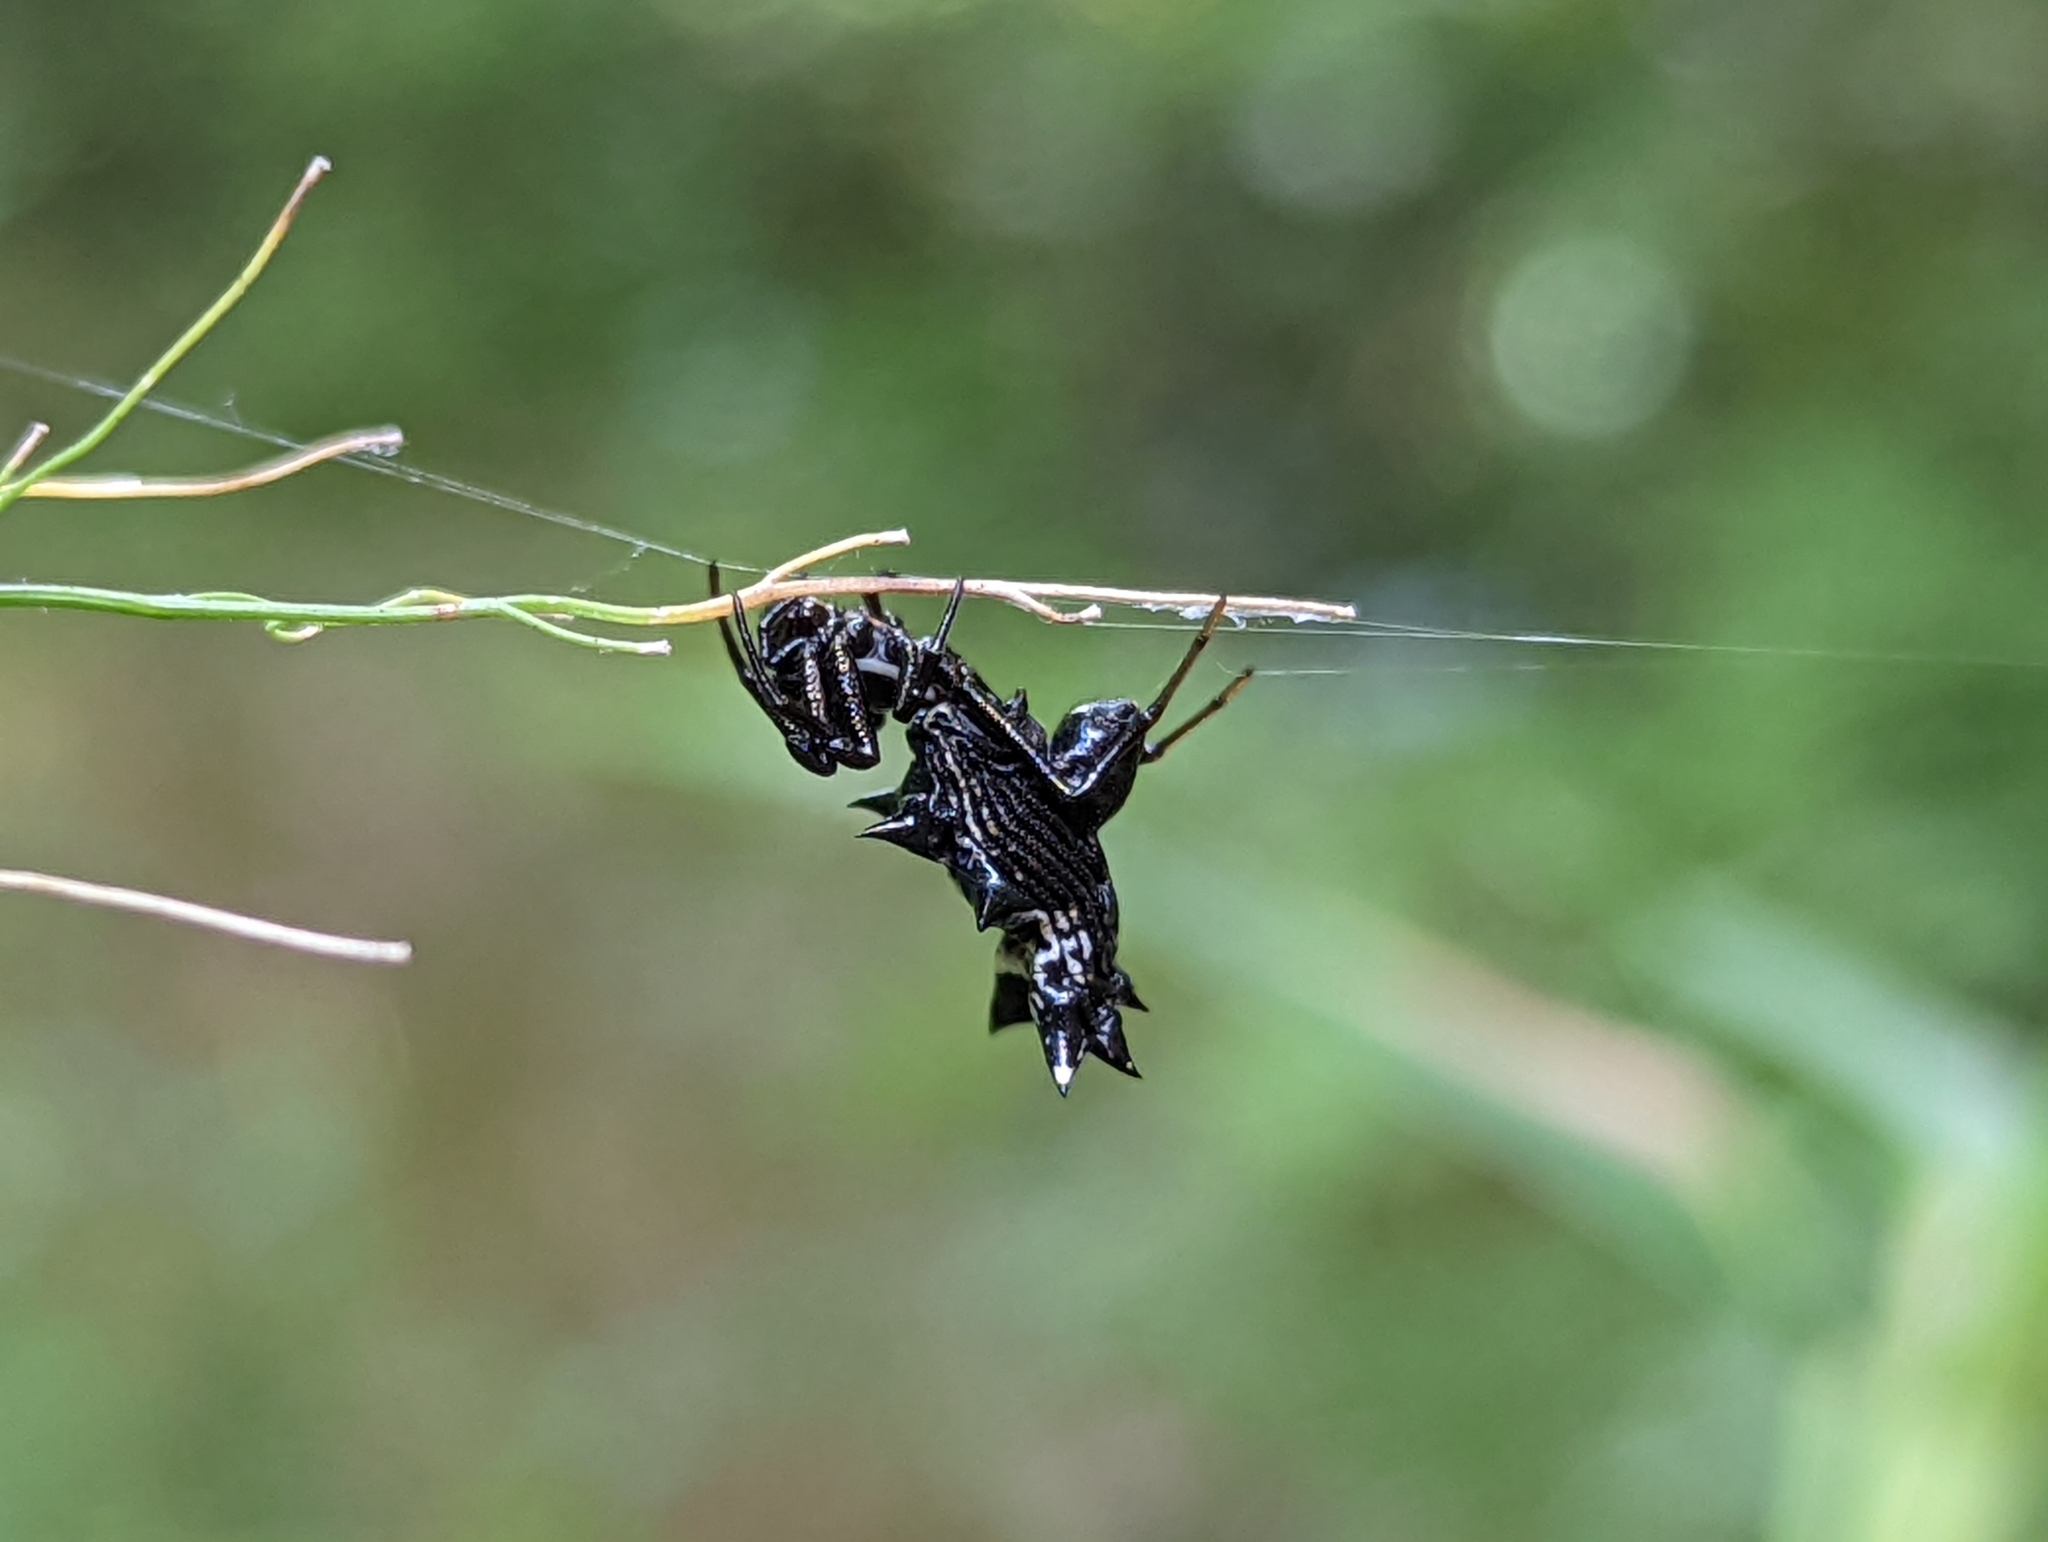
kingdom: Animalia
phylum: Arthropoda
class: Arachnida
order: Araneae
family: Araneidae
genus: Micrathena
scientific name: Micrathena gracilis
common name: Orb weavers
